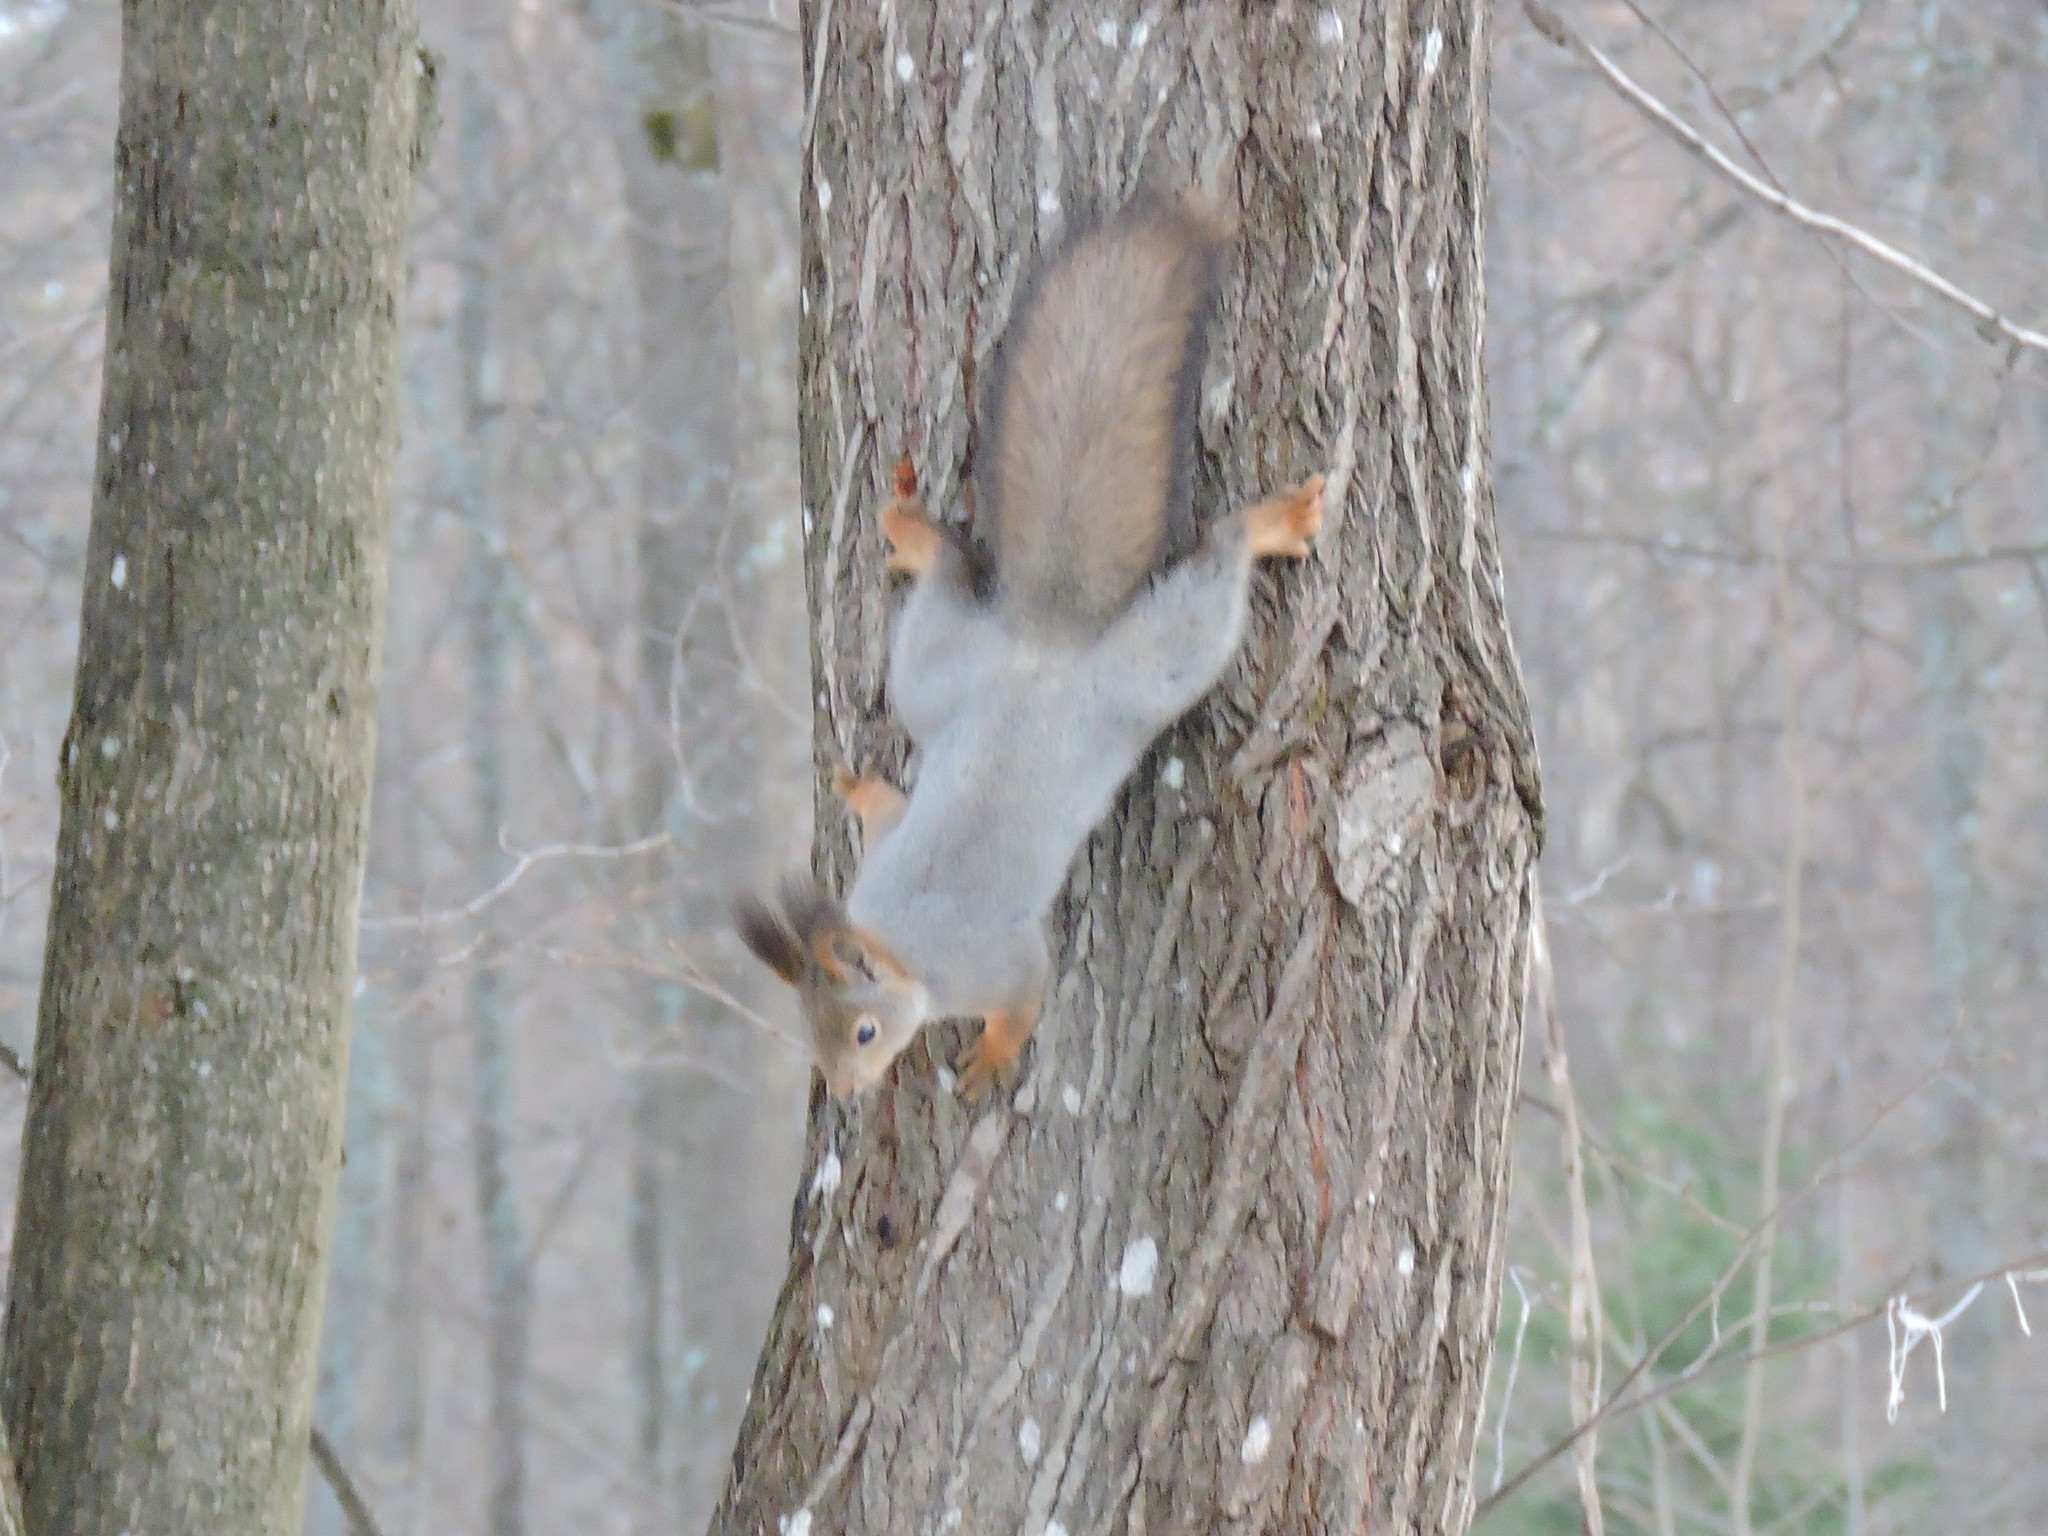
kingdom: Animalia
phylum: Chordata
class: Mammalia
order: Rodentia
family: Sciuridae
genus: Sciurus
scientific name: Sciurus vulgaris
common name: Eurasian red squirrel
